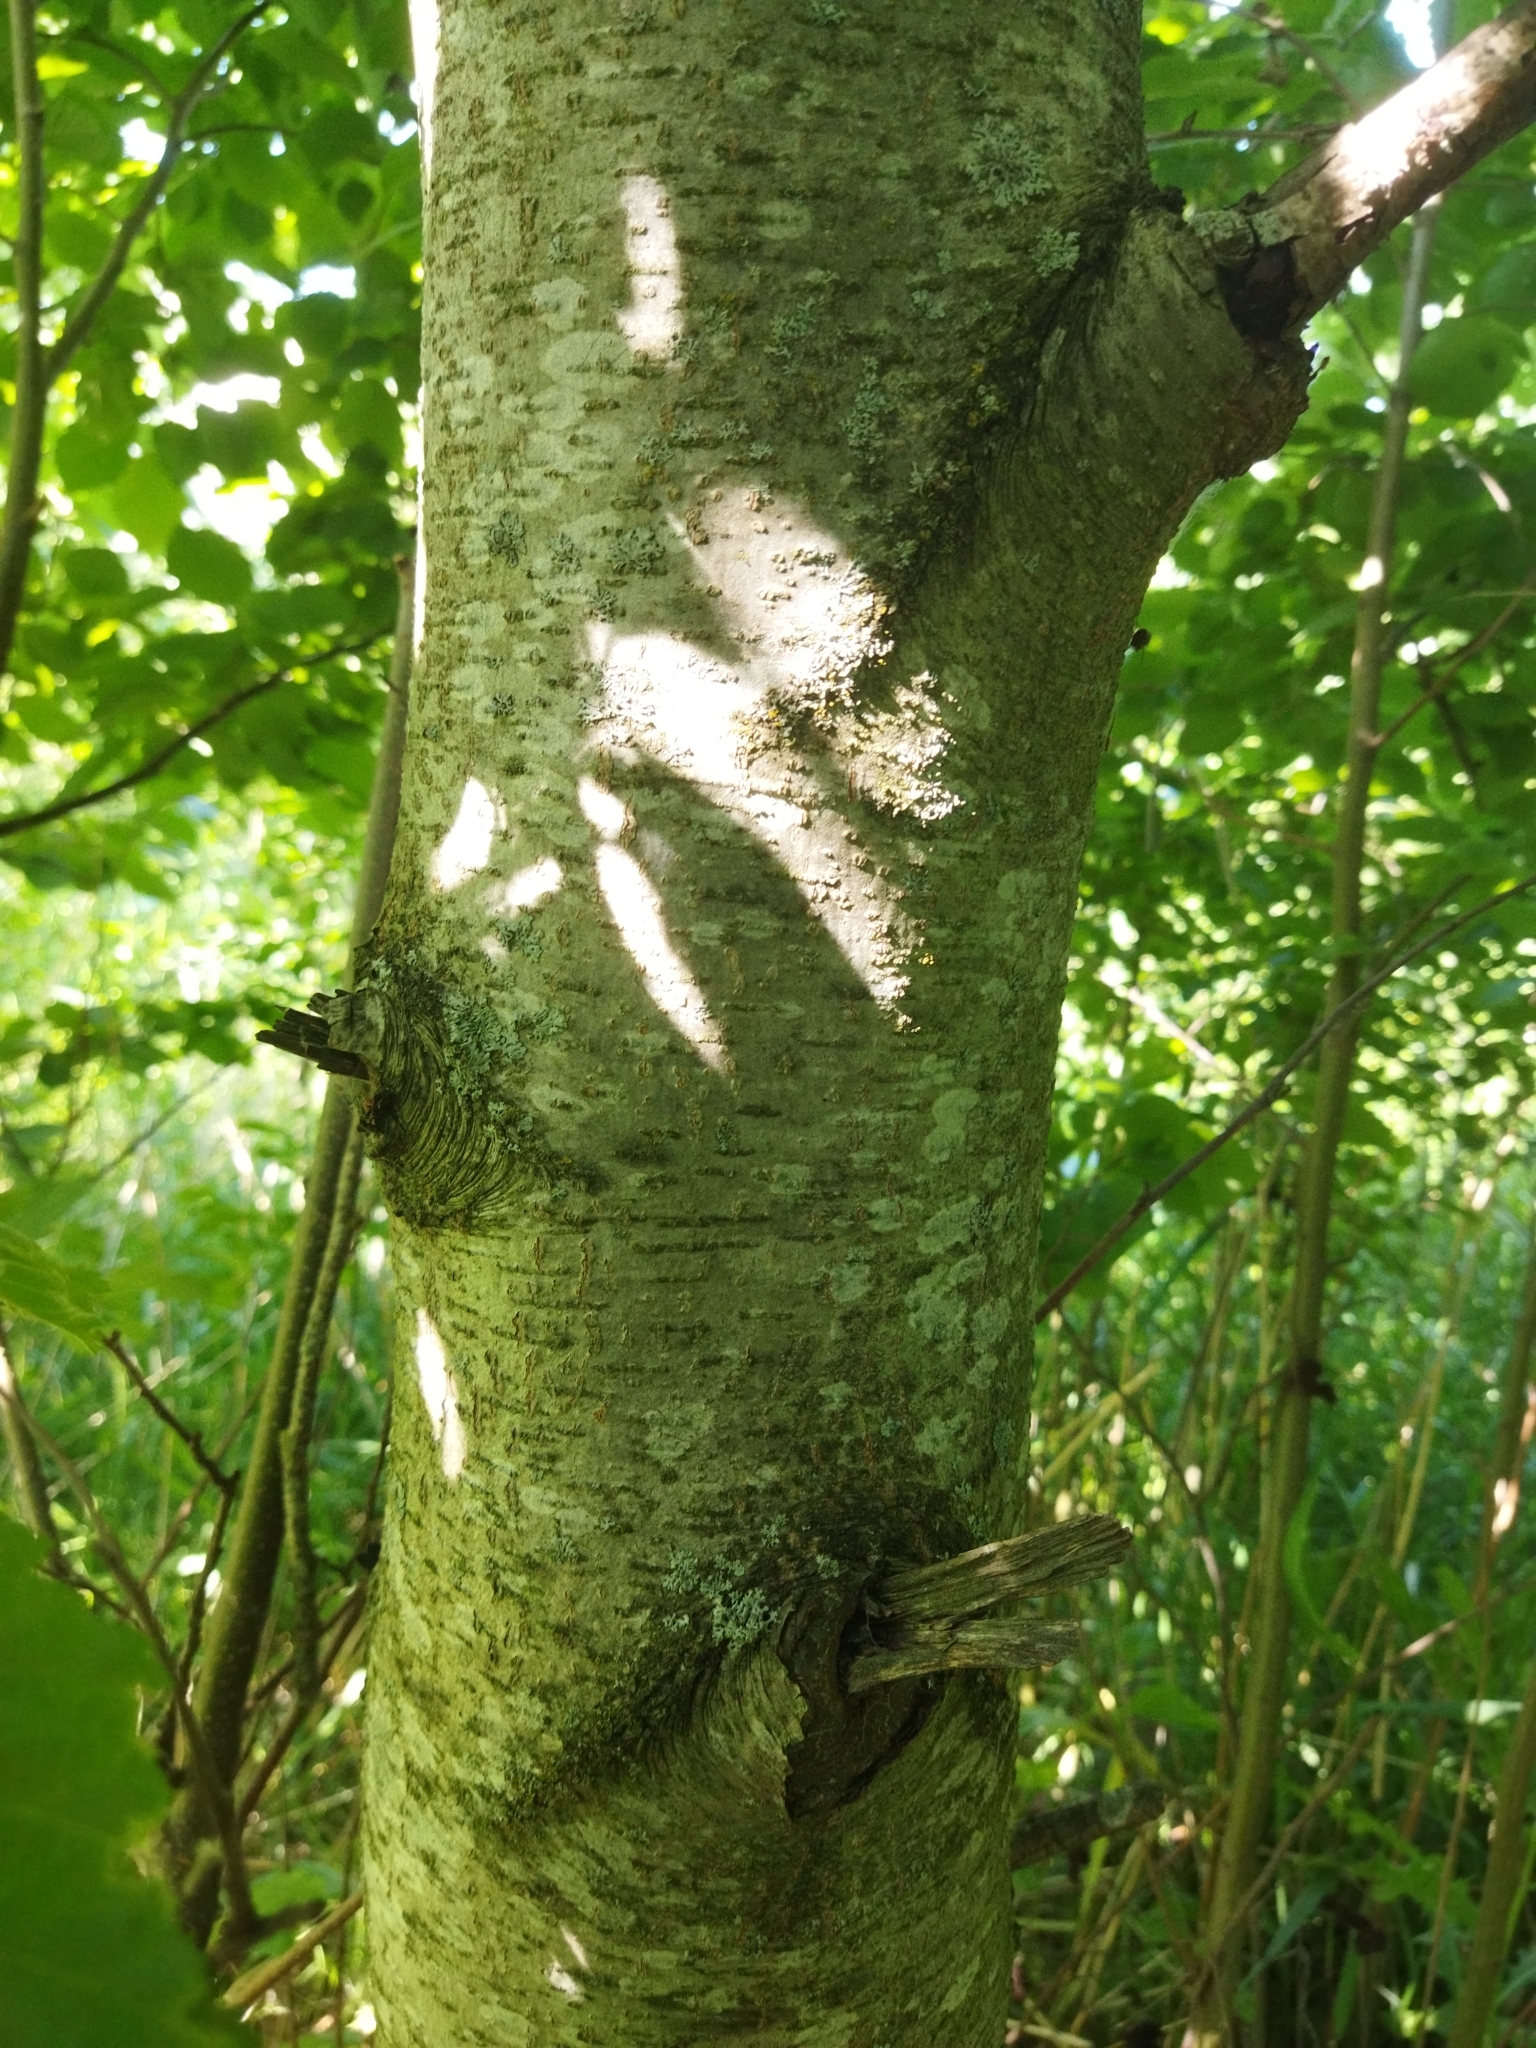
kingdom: Plantae
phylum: Tracheophyta
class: Magnoliopsida
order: Fagales
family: Betulaceae
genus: Alnus
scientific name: Alnus incana
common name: Grey alder
